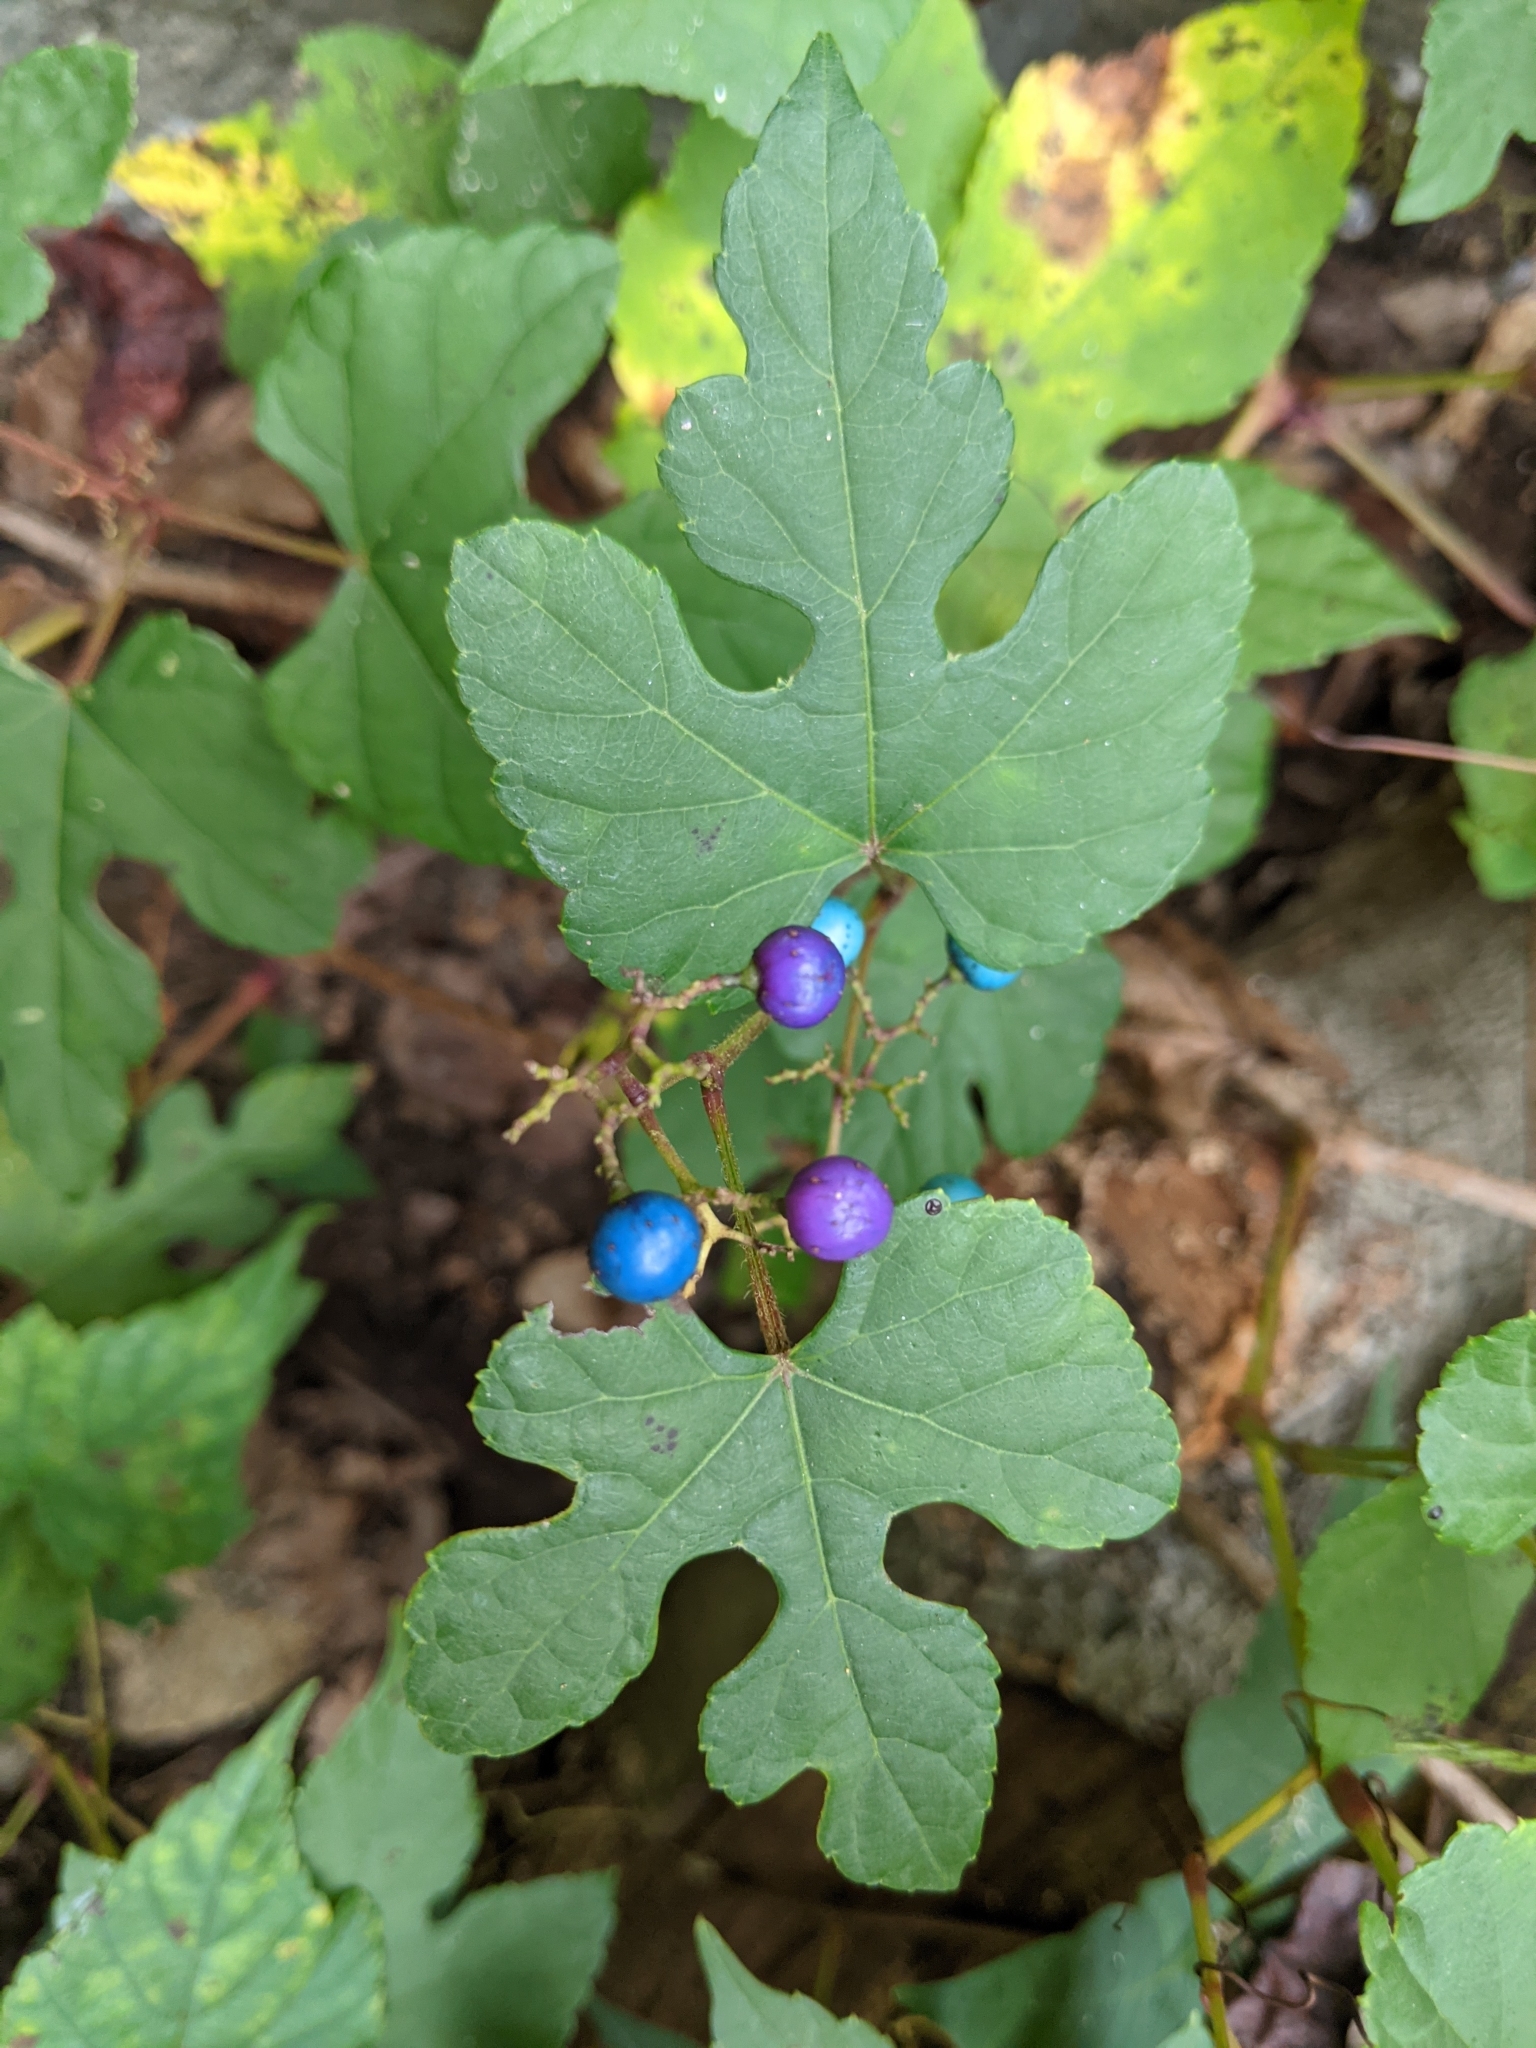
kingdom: Plantae
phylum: Tracheophyta
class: Magnoliopsida
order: Vitales
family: Vitaceae
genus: Ampelopsis
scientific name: Ampelopsis glandulosa
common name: Amur peppervine
